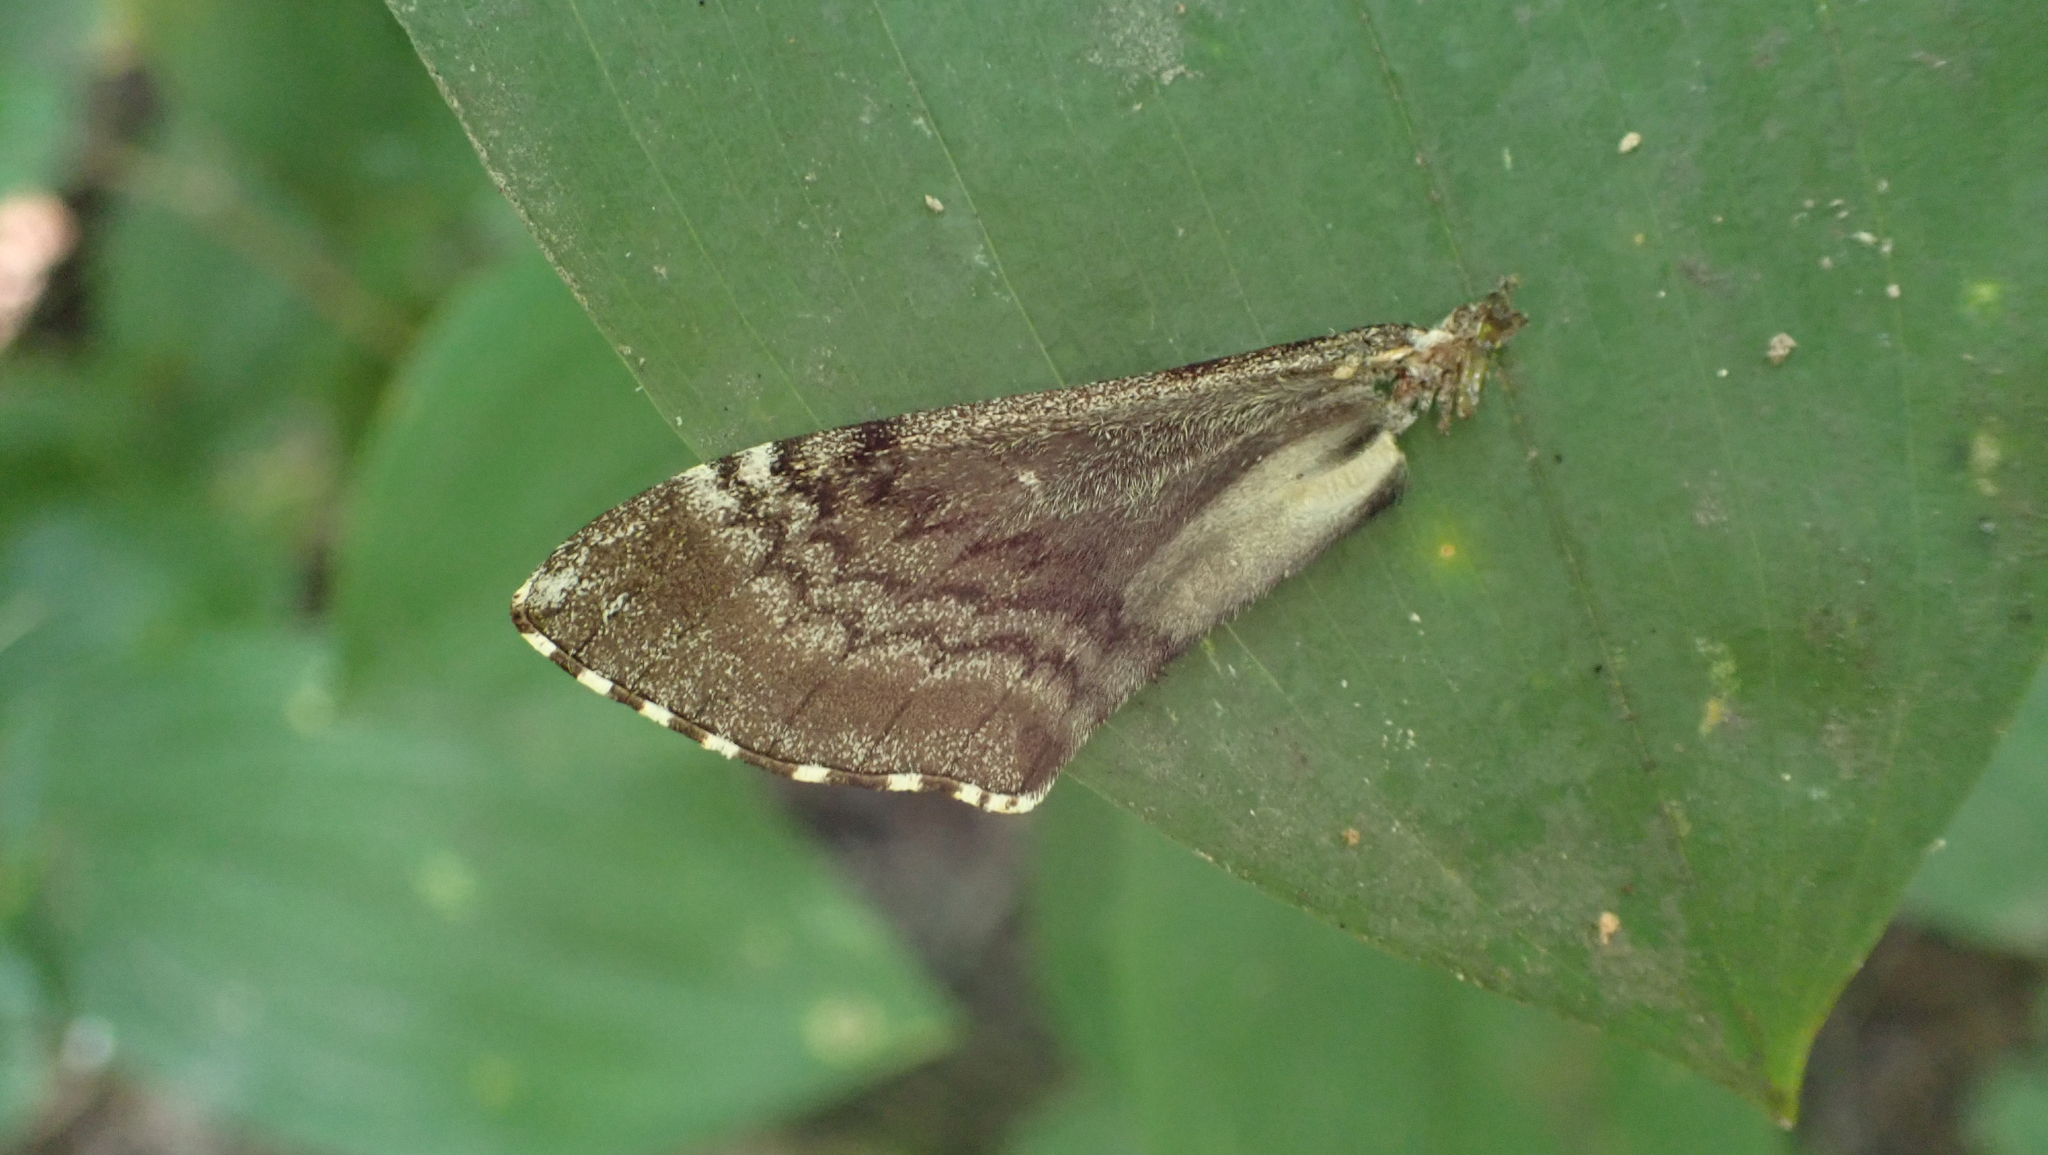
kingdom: Animalia
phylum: Arthropoda
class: Insecta
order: Lepidoptera
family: Sphingidae
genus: Dolba
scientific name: Dolba hyloeus
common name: Pawpaw sphinx
